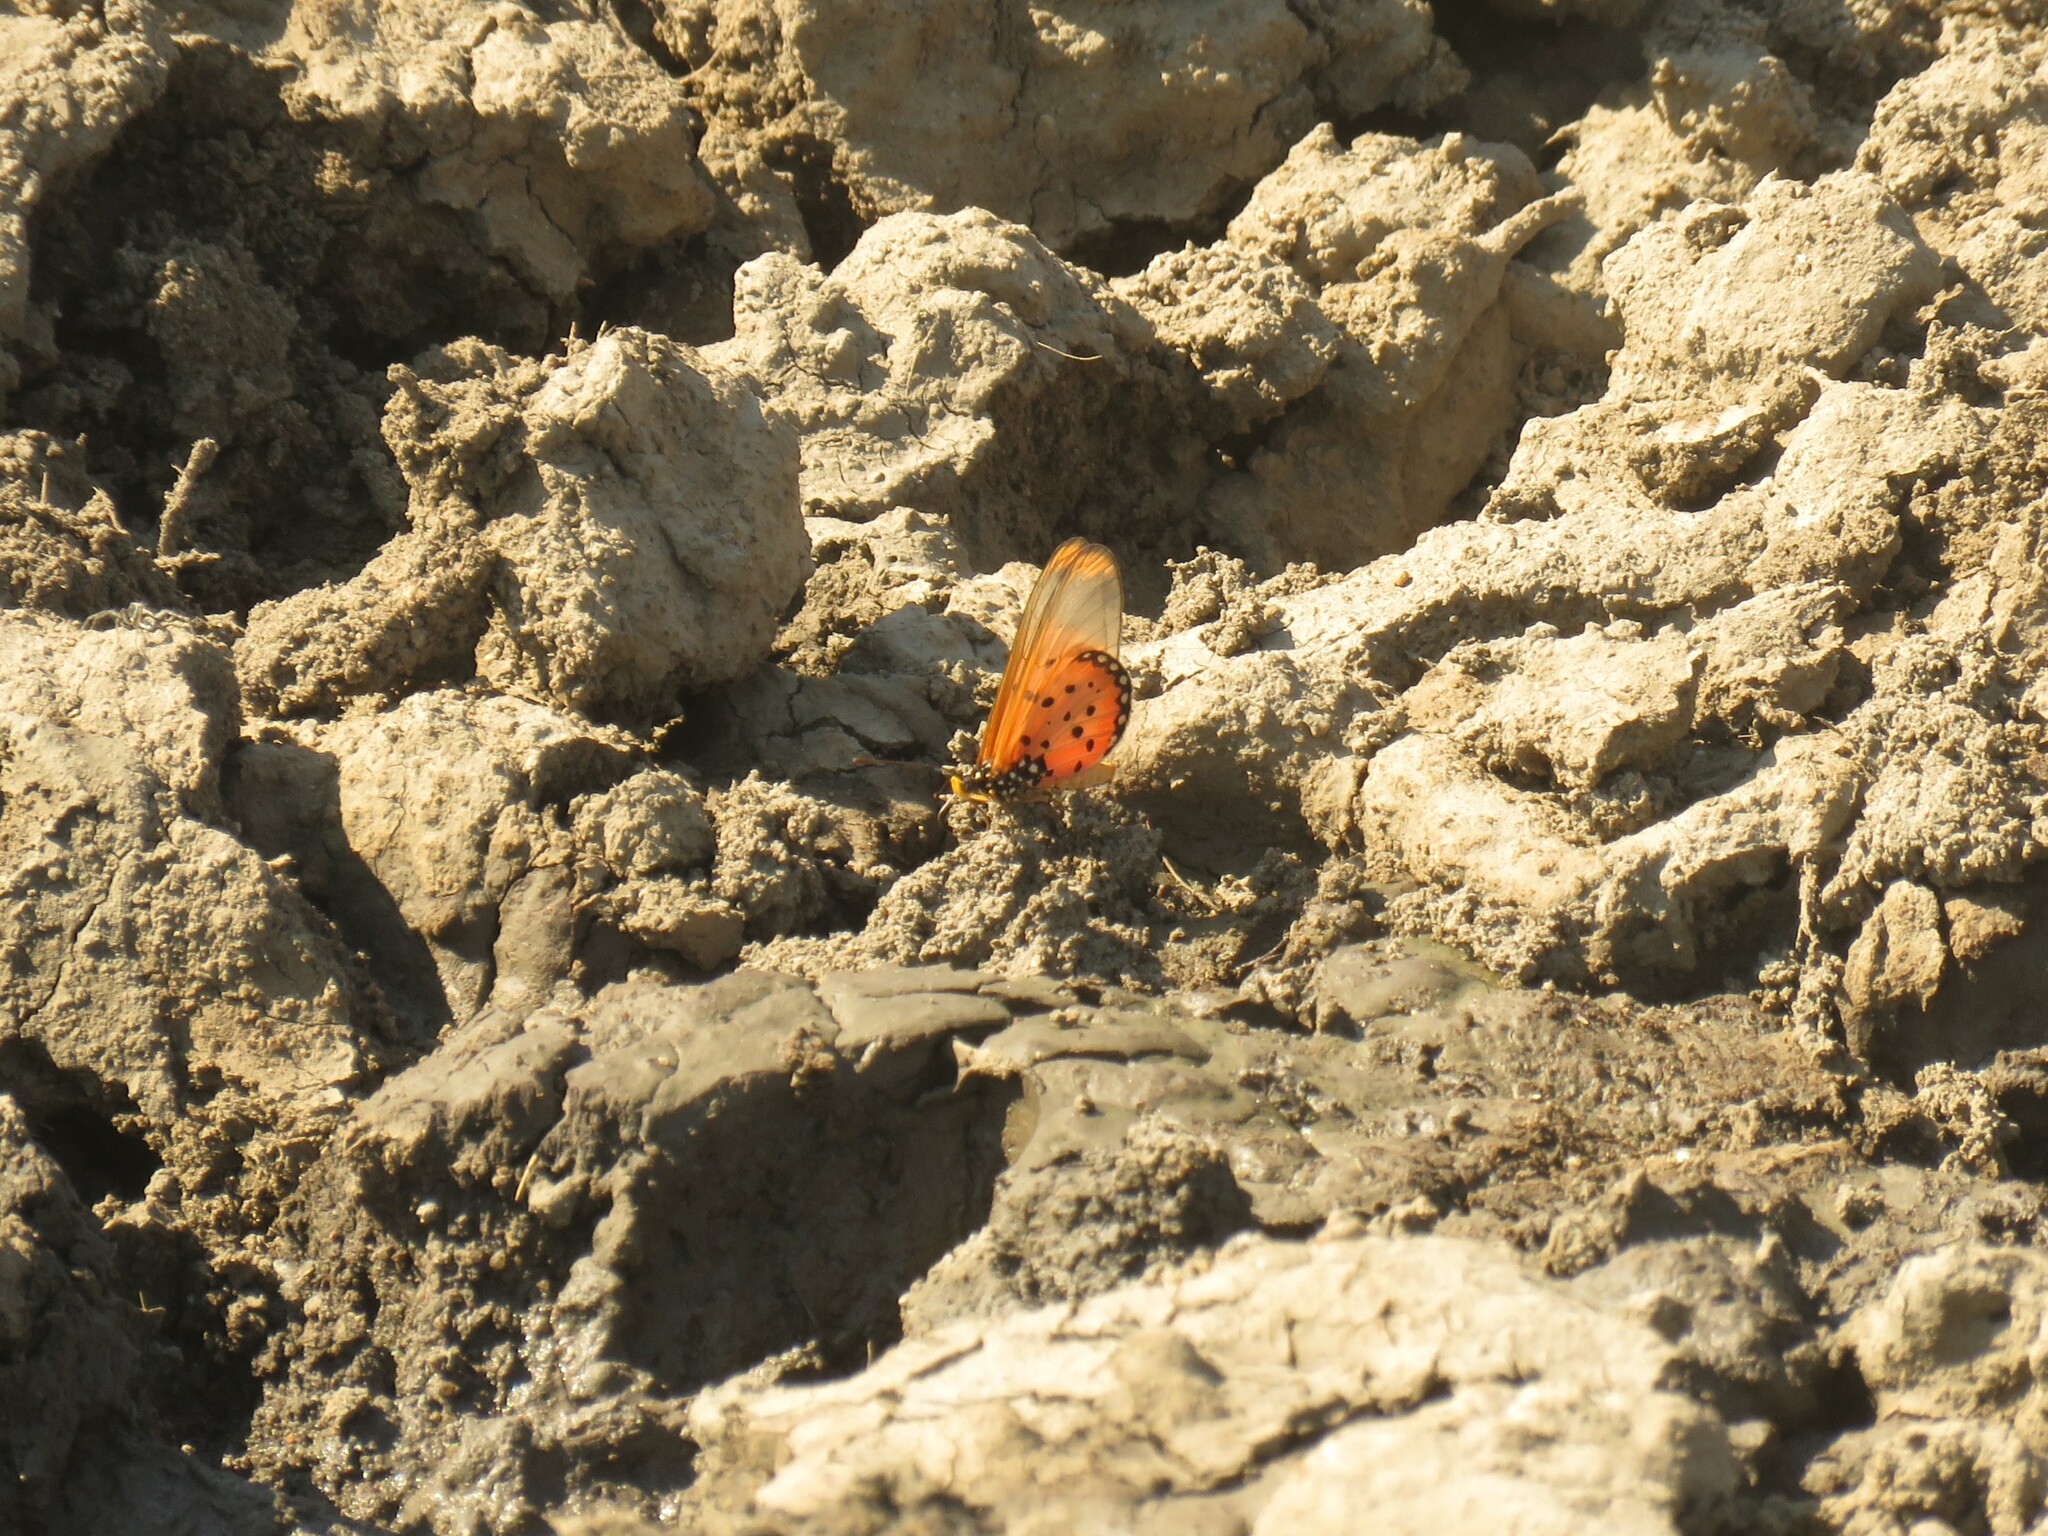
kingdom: Animalia
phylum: Arthropoda
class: Insecta
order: Lepidoptera
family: Nymphalidae
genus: Acraea
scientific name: Acraea neobule
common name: Dancing acraea
